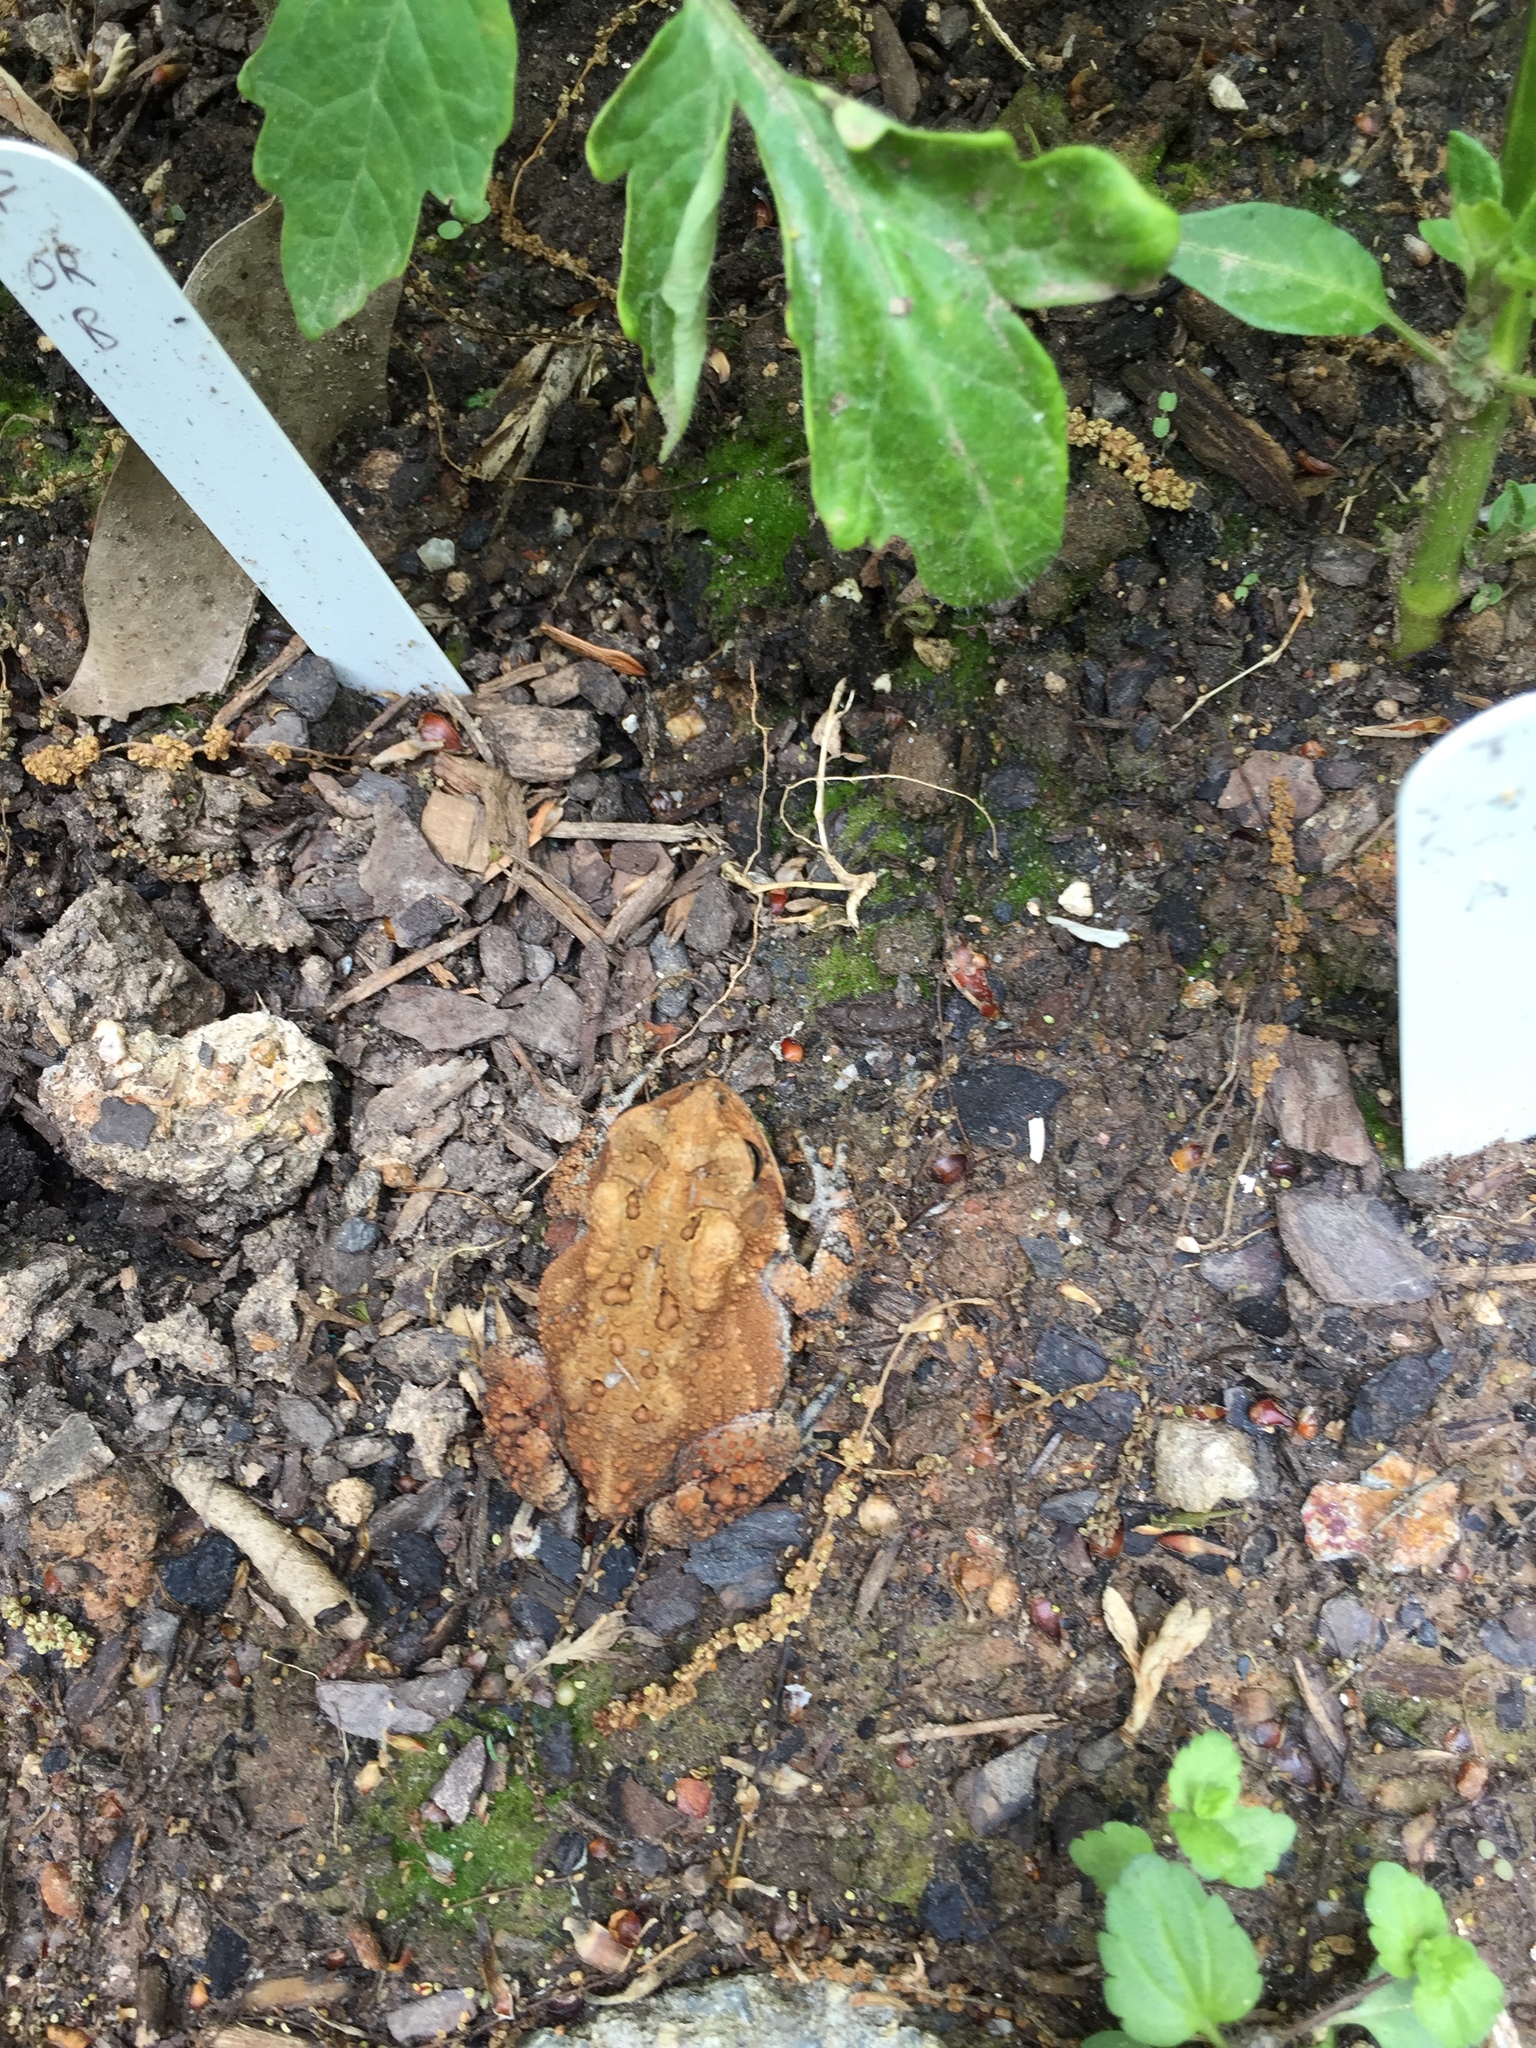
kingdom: Animalia
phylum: Chordata
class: Amphibia
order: Anura
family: Bufonidae
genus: Anaxyrus
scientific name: Anaxyrus americanus
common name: American toad
